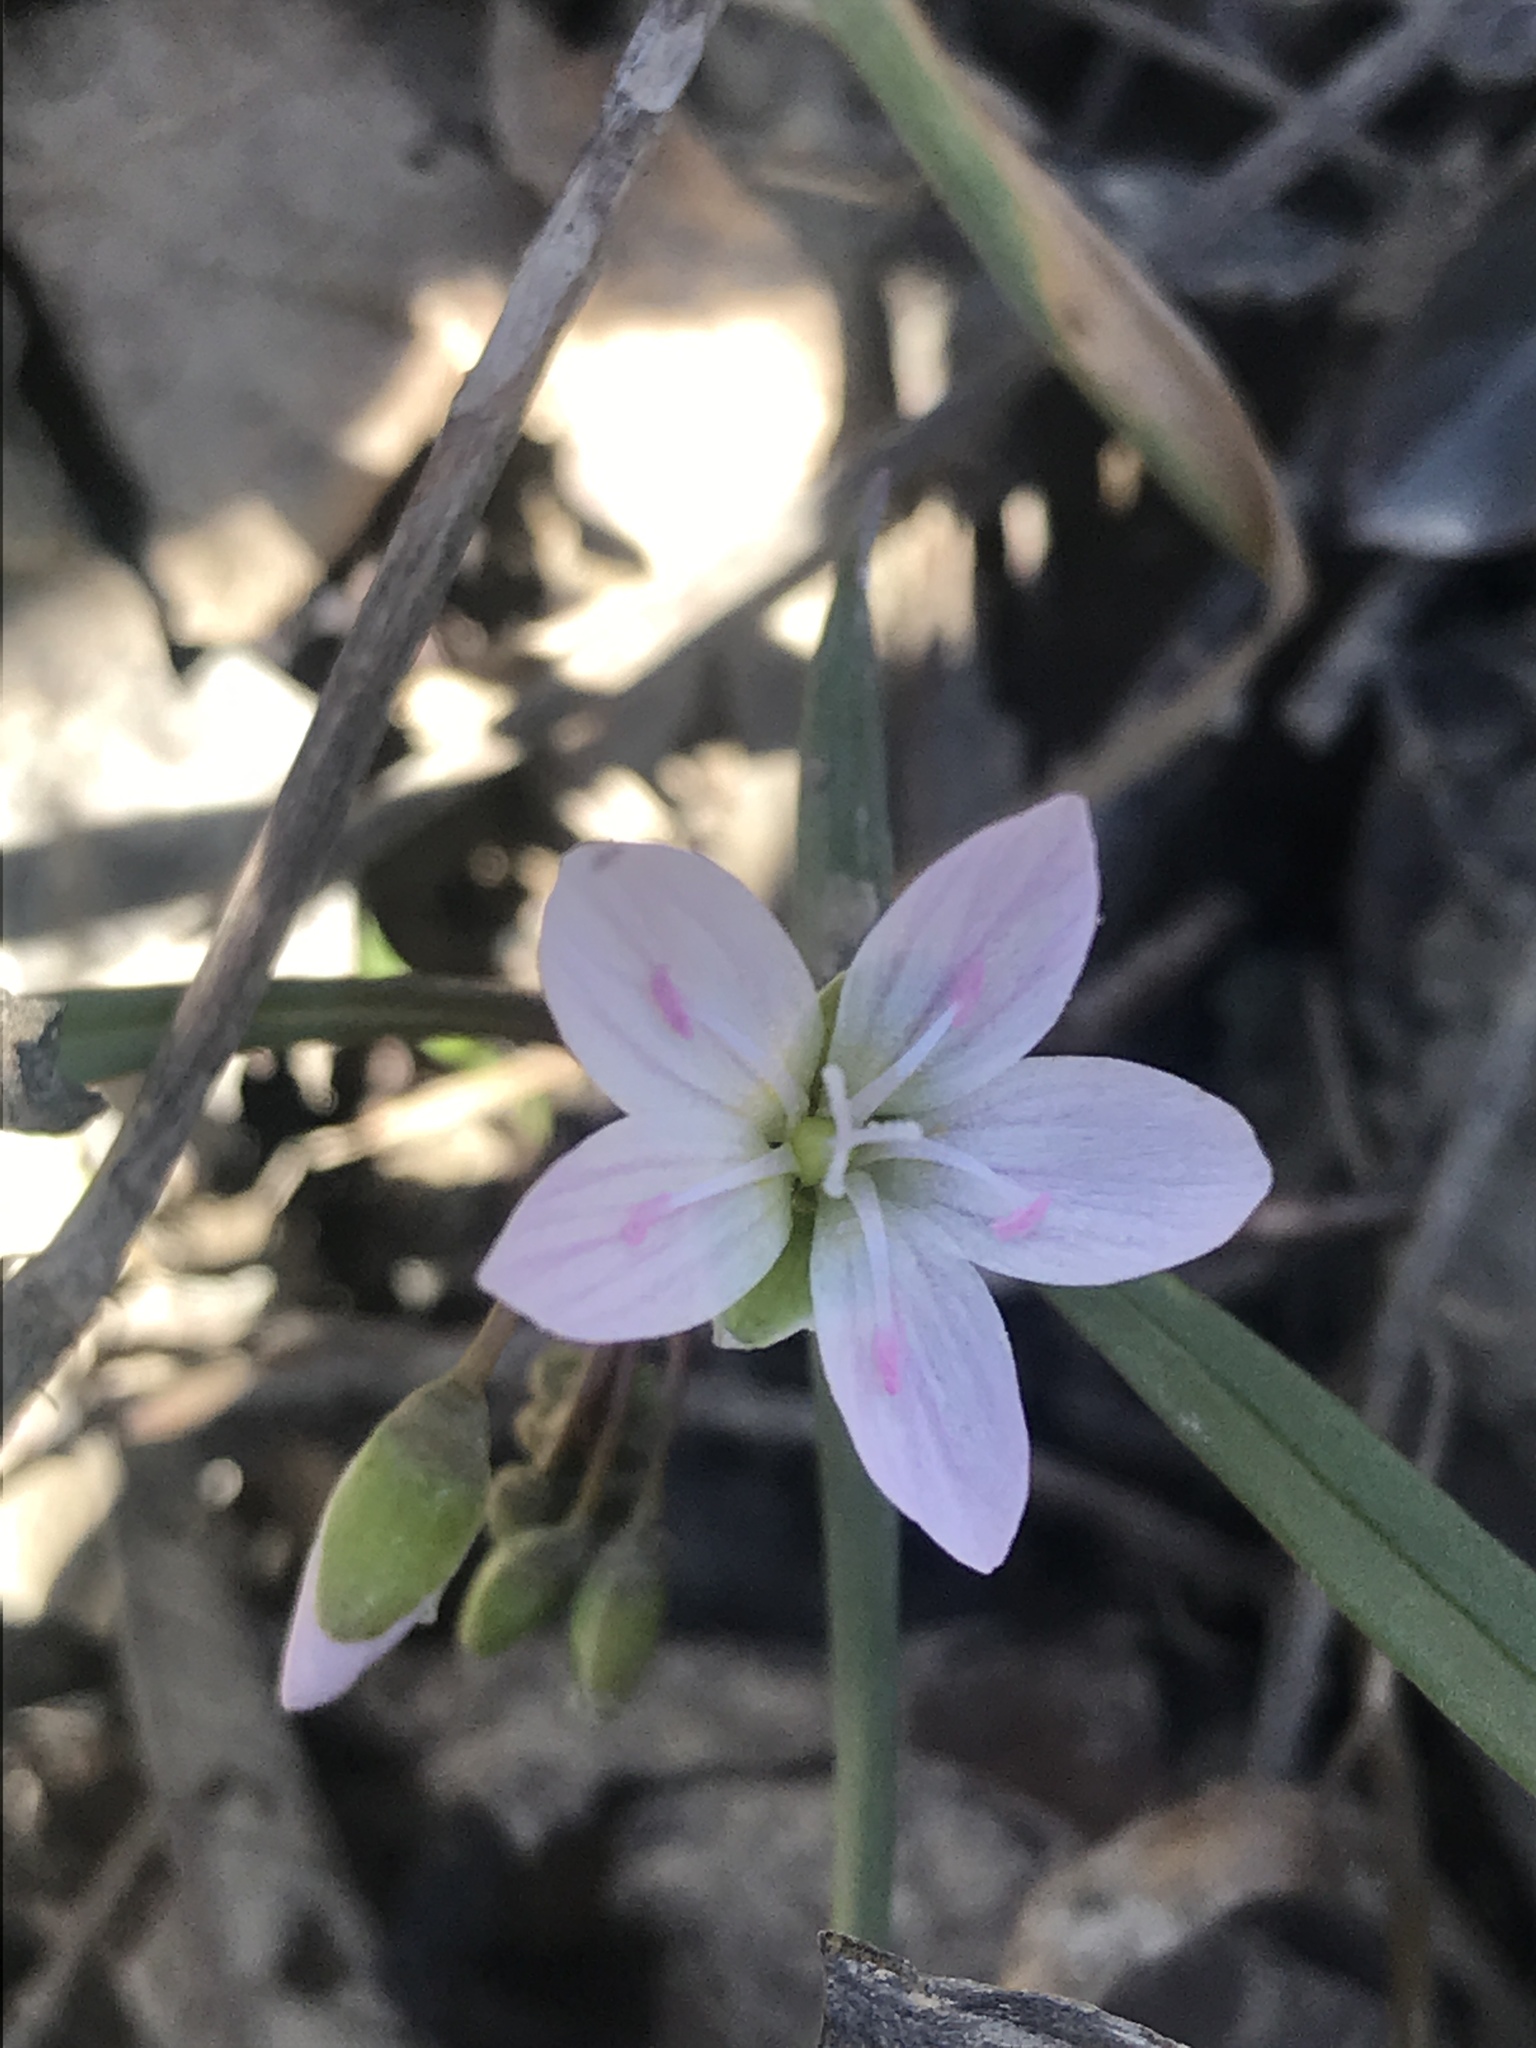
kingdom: Plantae
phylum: Tracheophyta
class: Magnoliopsida
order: Caryophyllales
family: Montiaceae
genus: Claytonia
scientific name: Claytonia virginica
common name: Virginia springbeauty
